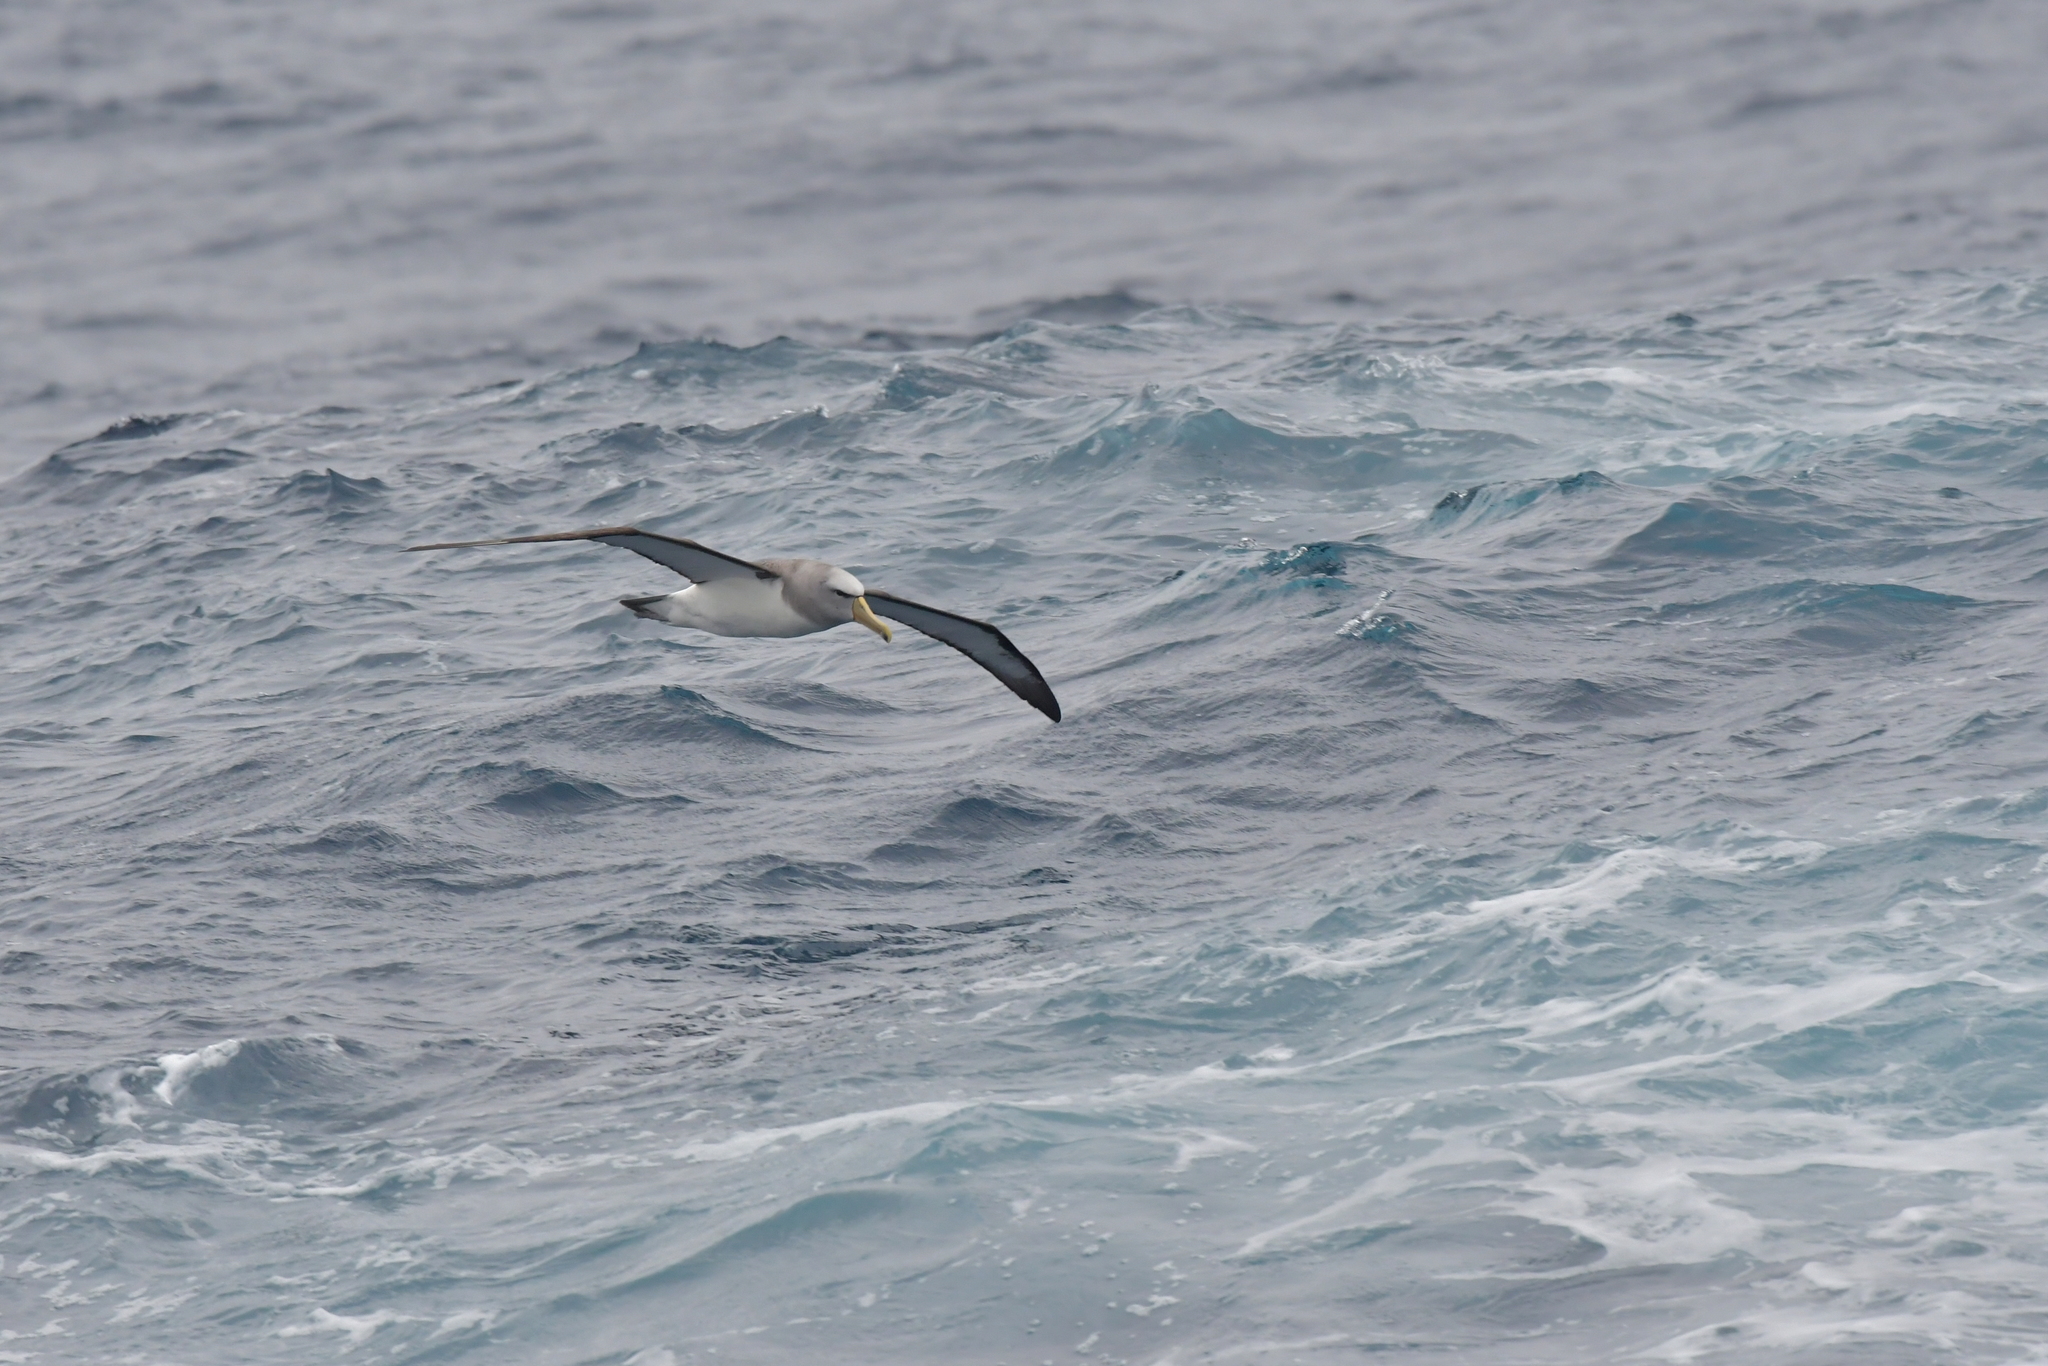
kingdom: Animalia
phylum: Chordata
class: Aves
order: Procellariiformes
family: Diomedeidae
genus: Thalassarche
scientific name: Thalassarche salvini
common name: Salvin's albatross
